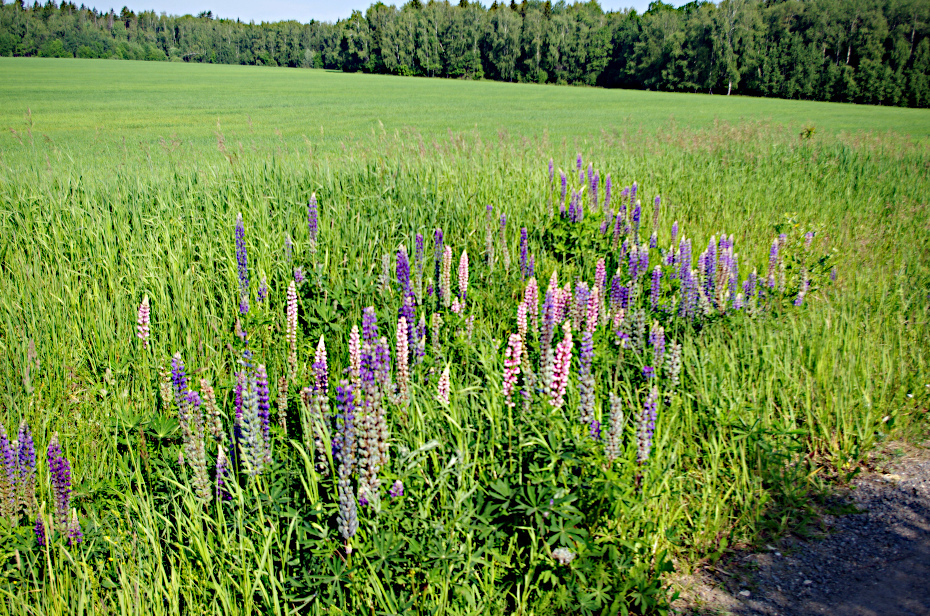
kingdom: Plantae
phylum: Tracheophyta
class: Magnoliopsida
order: Fabales
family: Fabaceae
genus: Lupinus
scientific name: Lupinus polyphyllus
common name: Garden lupin
